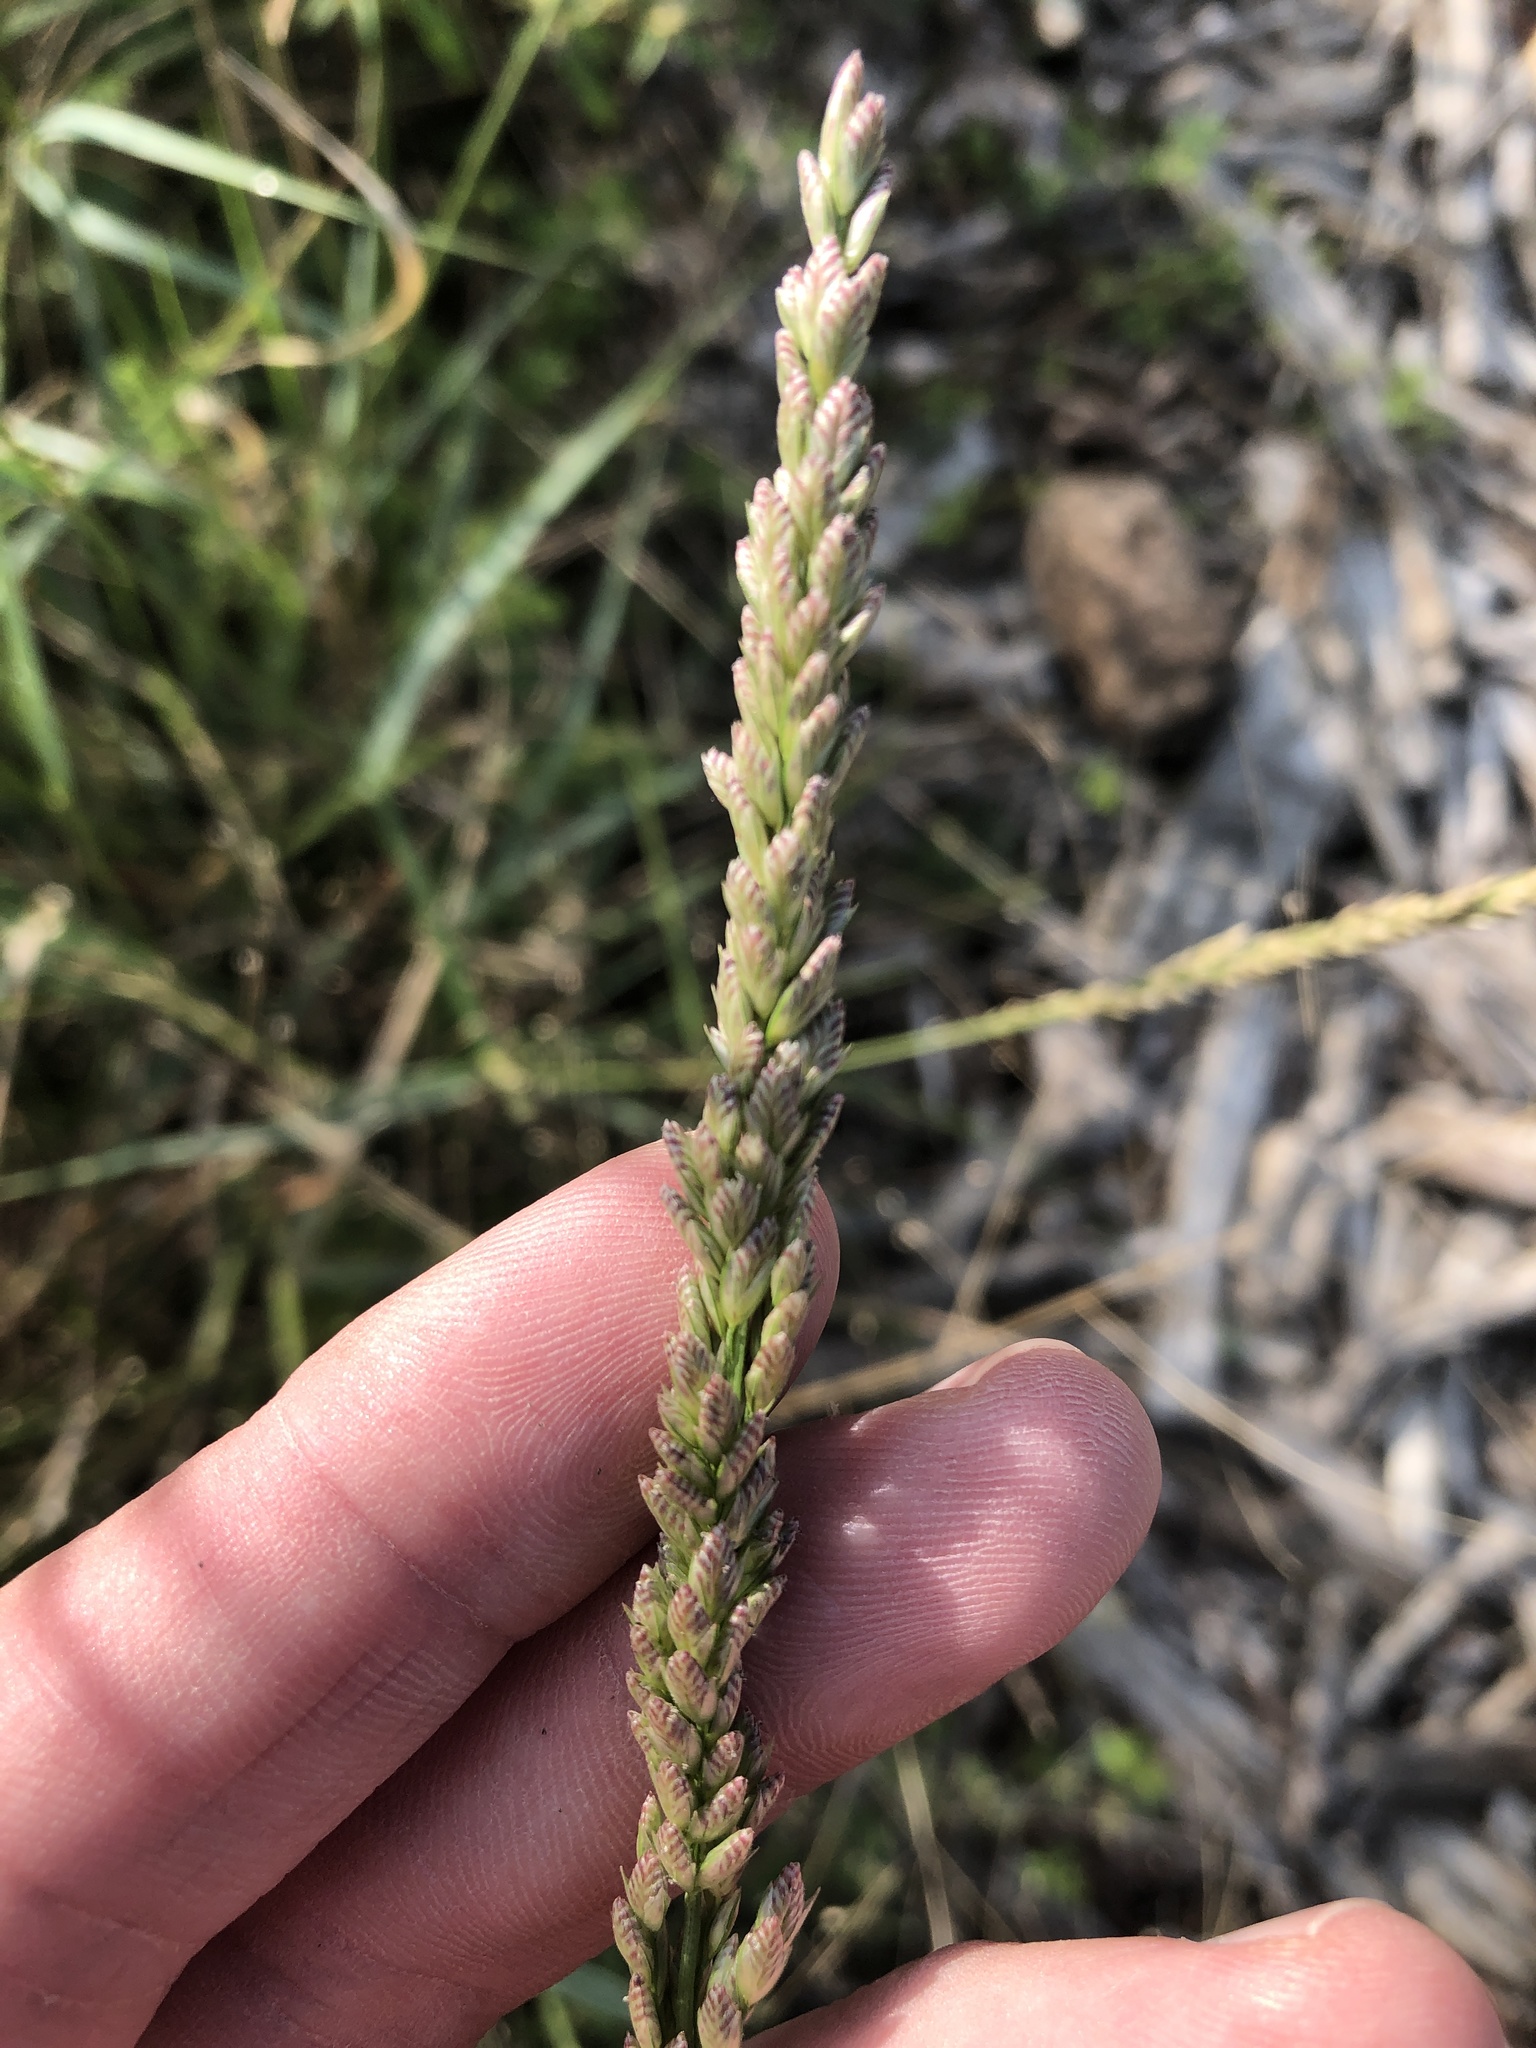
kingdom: Plantae
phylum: Tracheophyta
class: Liliopsida
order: Poales
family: Poaceae
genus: Tridens
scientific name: Tridens albescens
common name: White tridens
